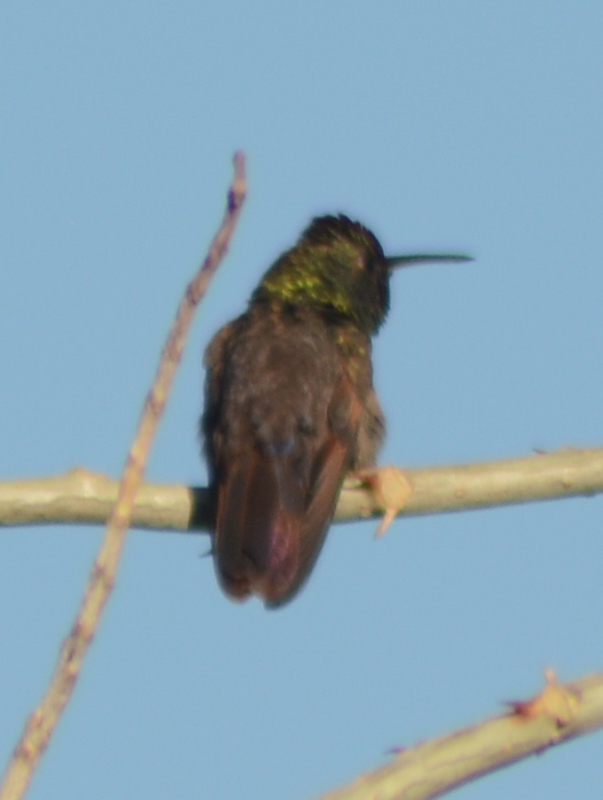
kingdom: Animalia
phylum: Chordata
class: Aves
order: Apodiformes
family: Trochilidae
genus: Saucerottia
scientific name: Saucerottia beryllina
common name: Berylline hummingbird
